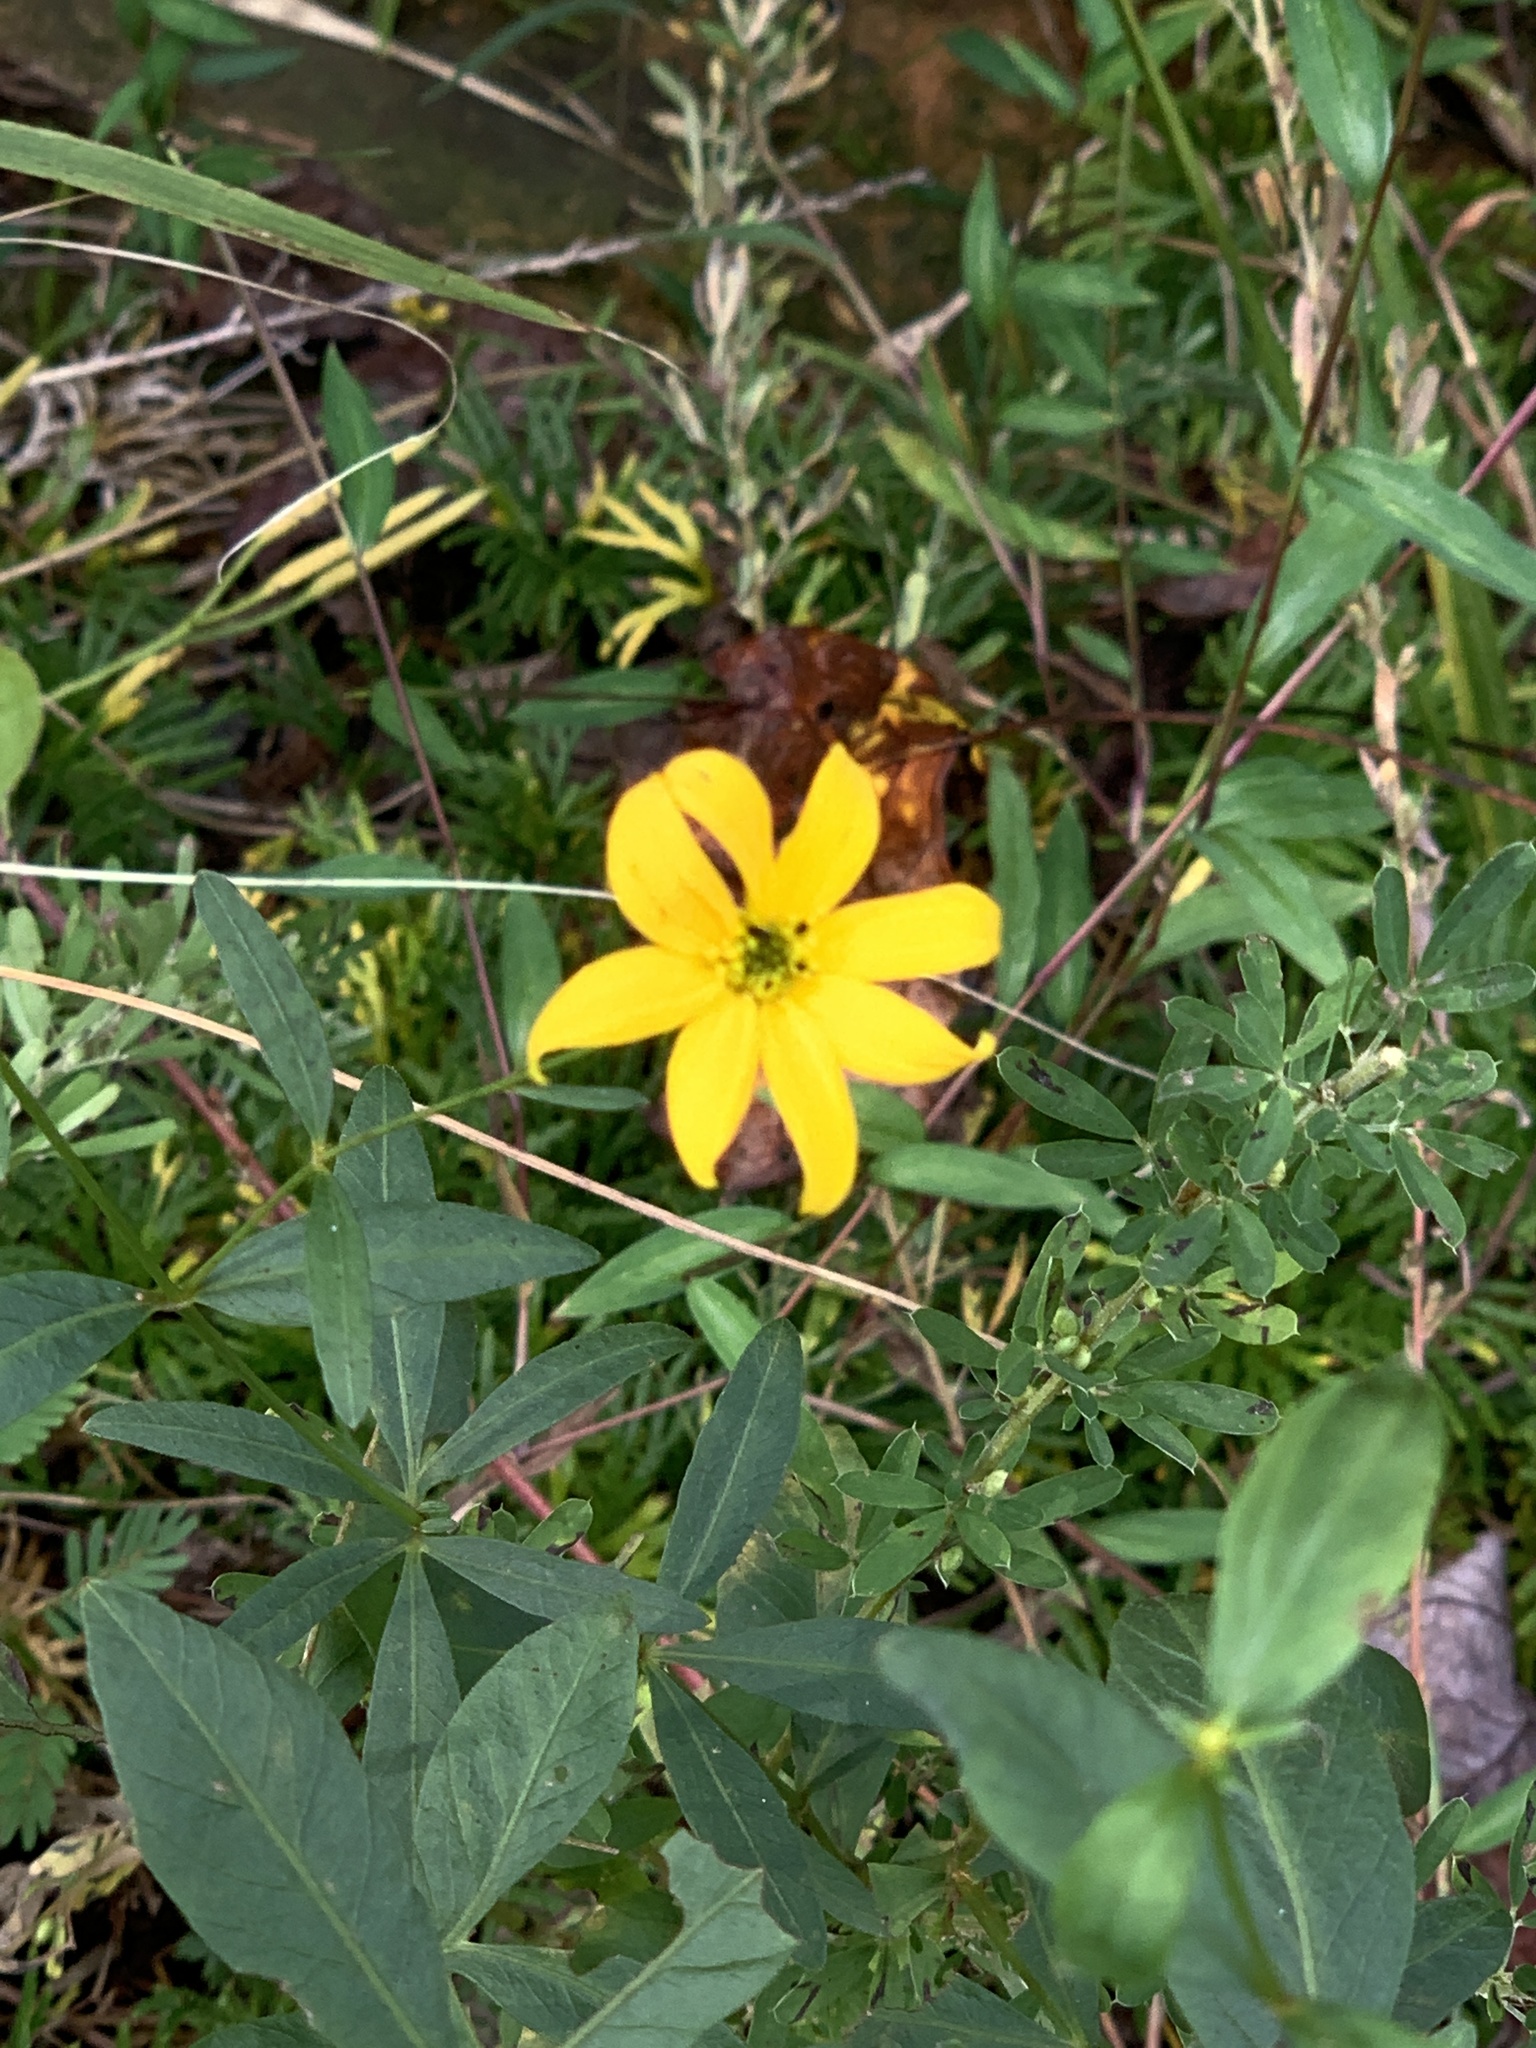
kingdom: Plantae
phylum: Tracheophyta
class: Magnoliopsida
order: Asterales
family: Asteraceae
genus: Coreopsis
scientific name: Coreopsis major
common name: Forest tickseed
